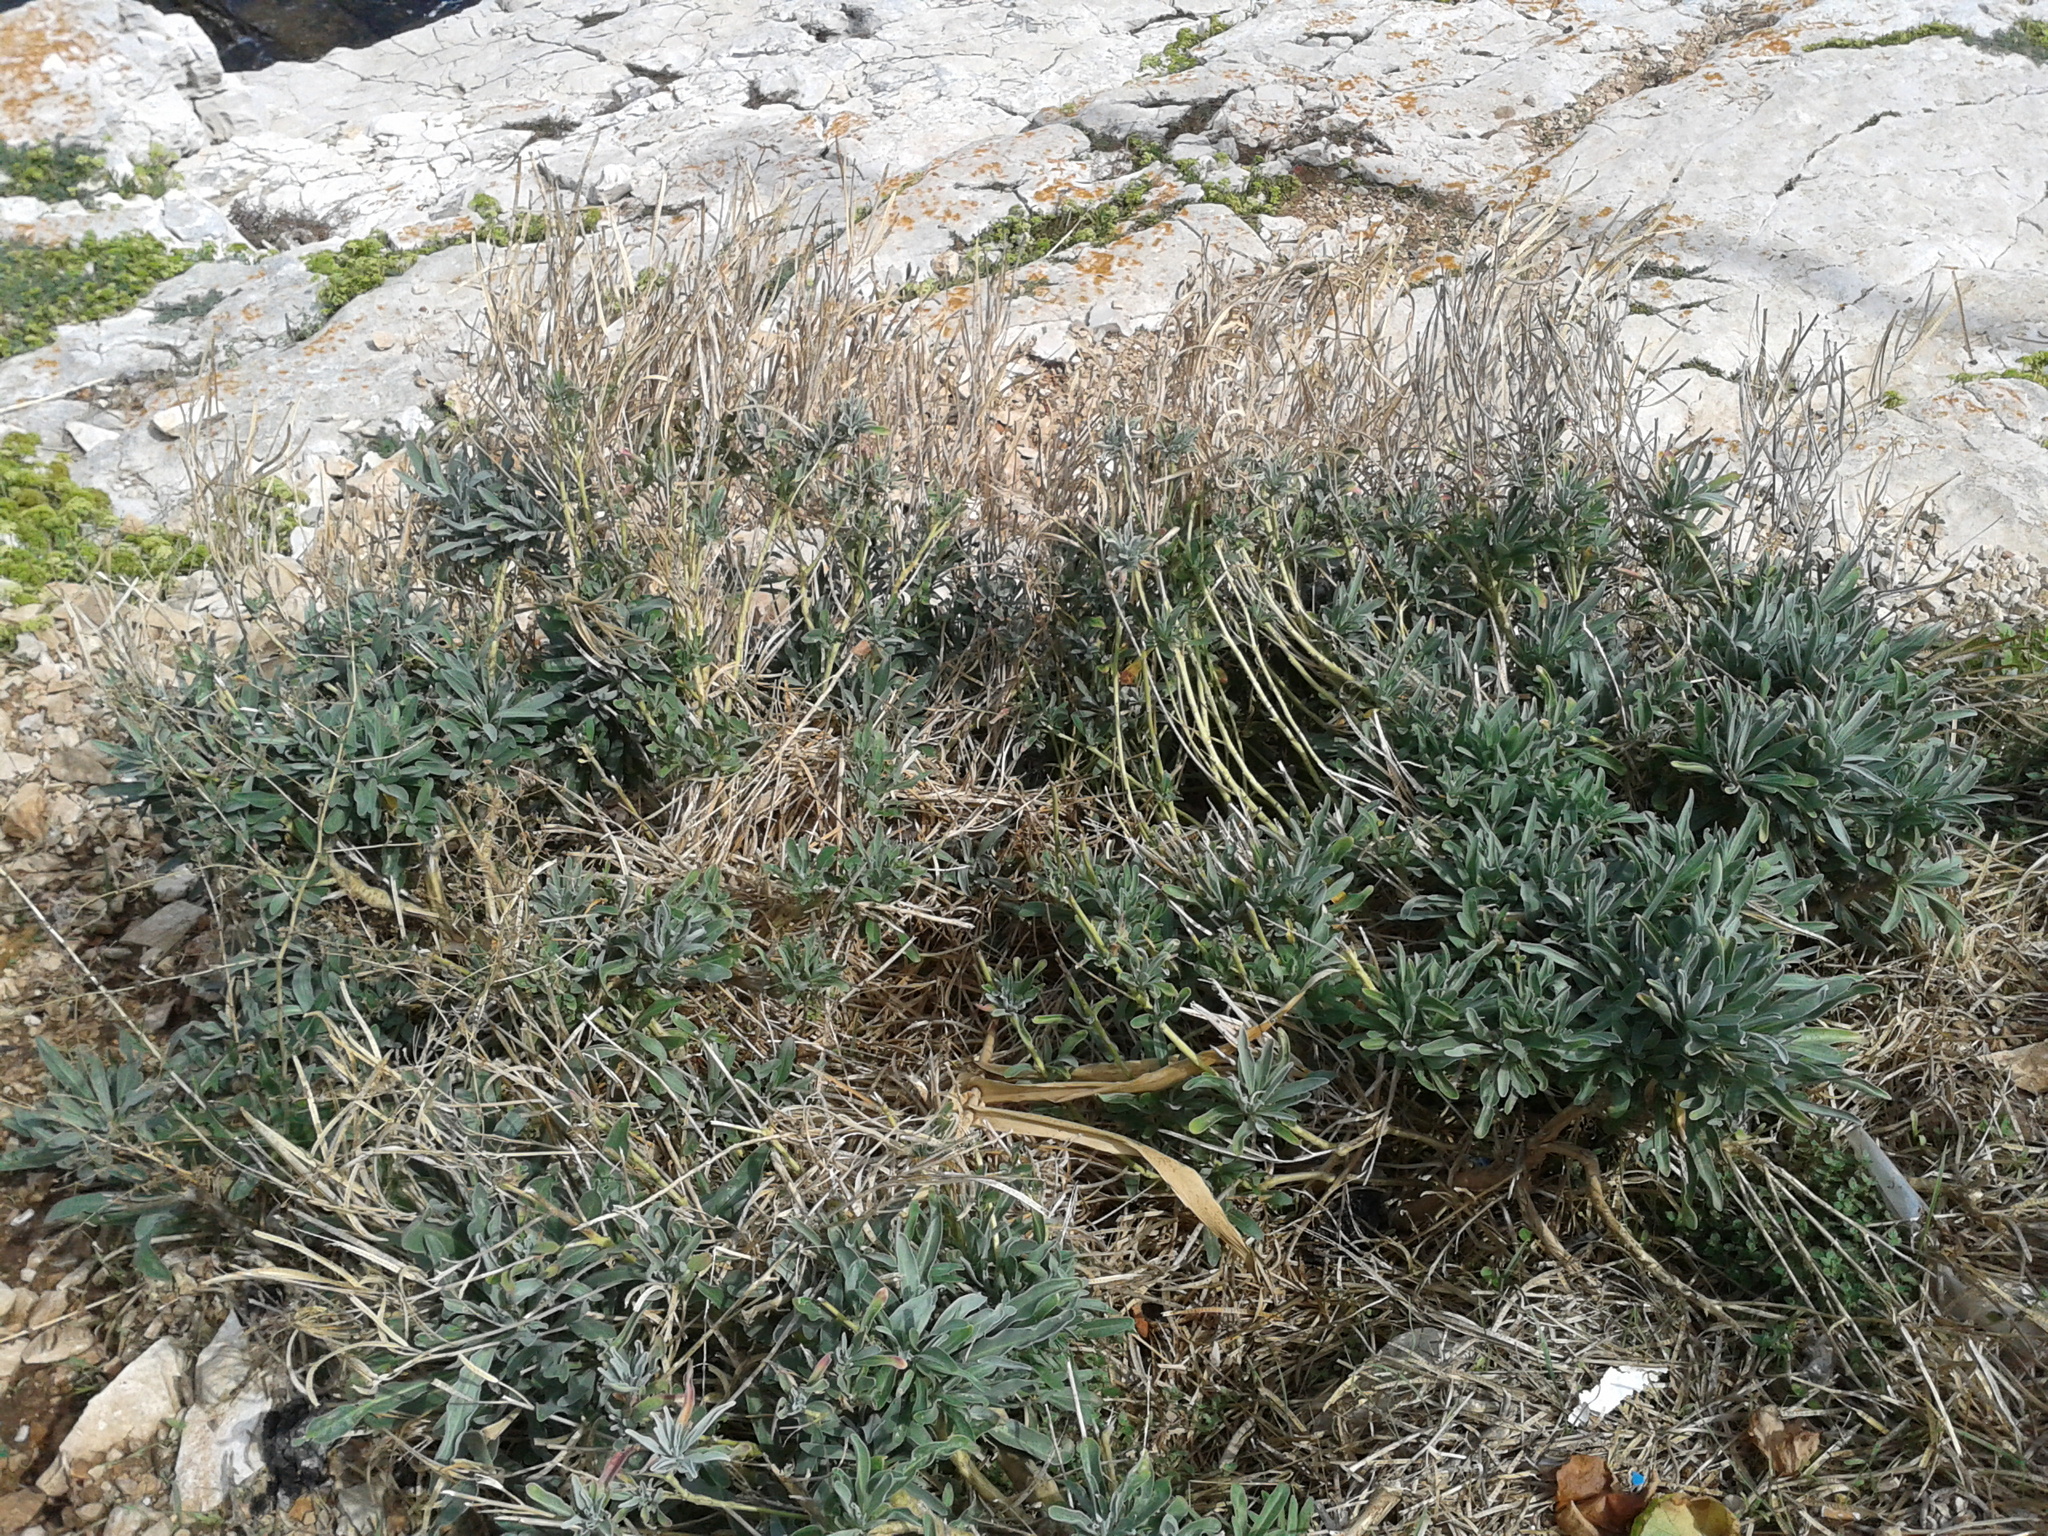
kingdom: Plantae
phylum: Tracheophyta
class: Magnoliopsida
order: Brassicales
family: Brassicaceae
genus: Matthiola
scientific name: Matthiola incana
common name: Hoary stock
